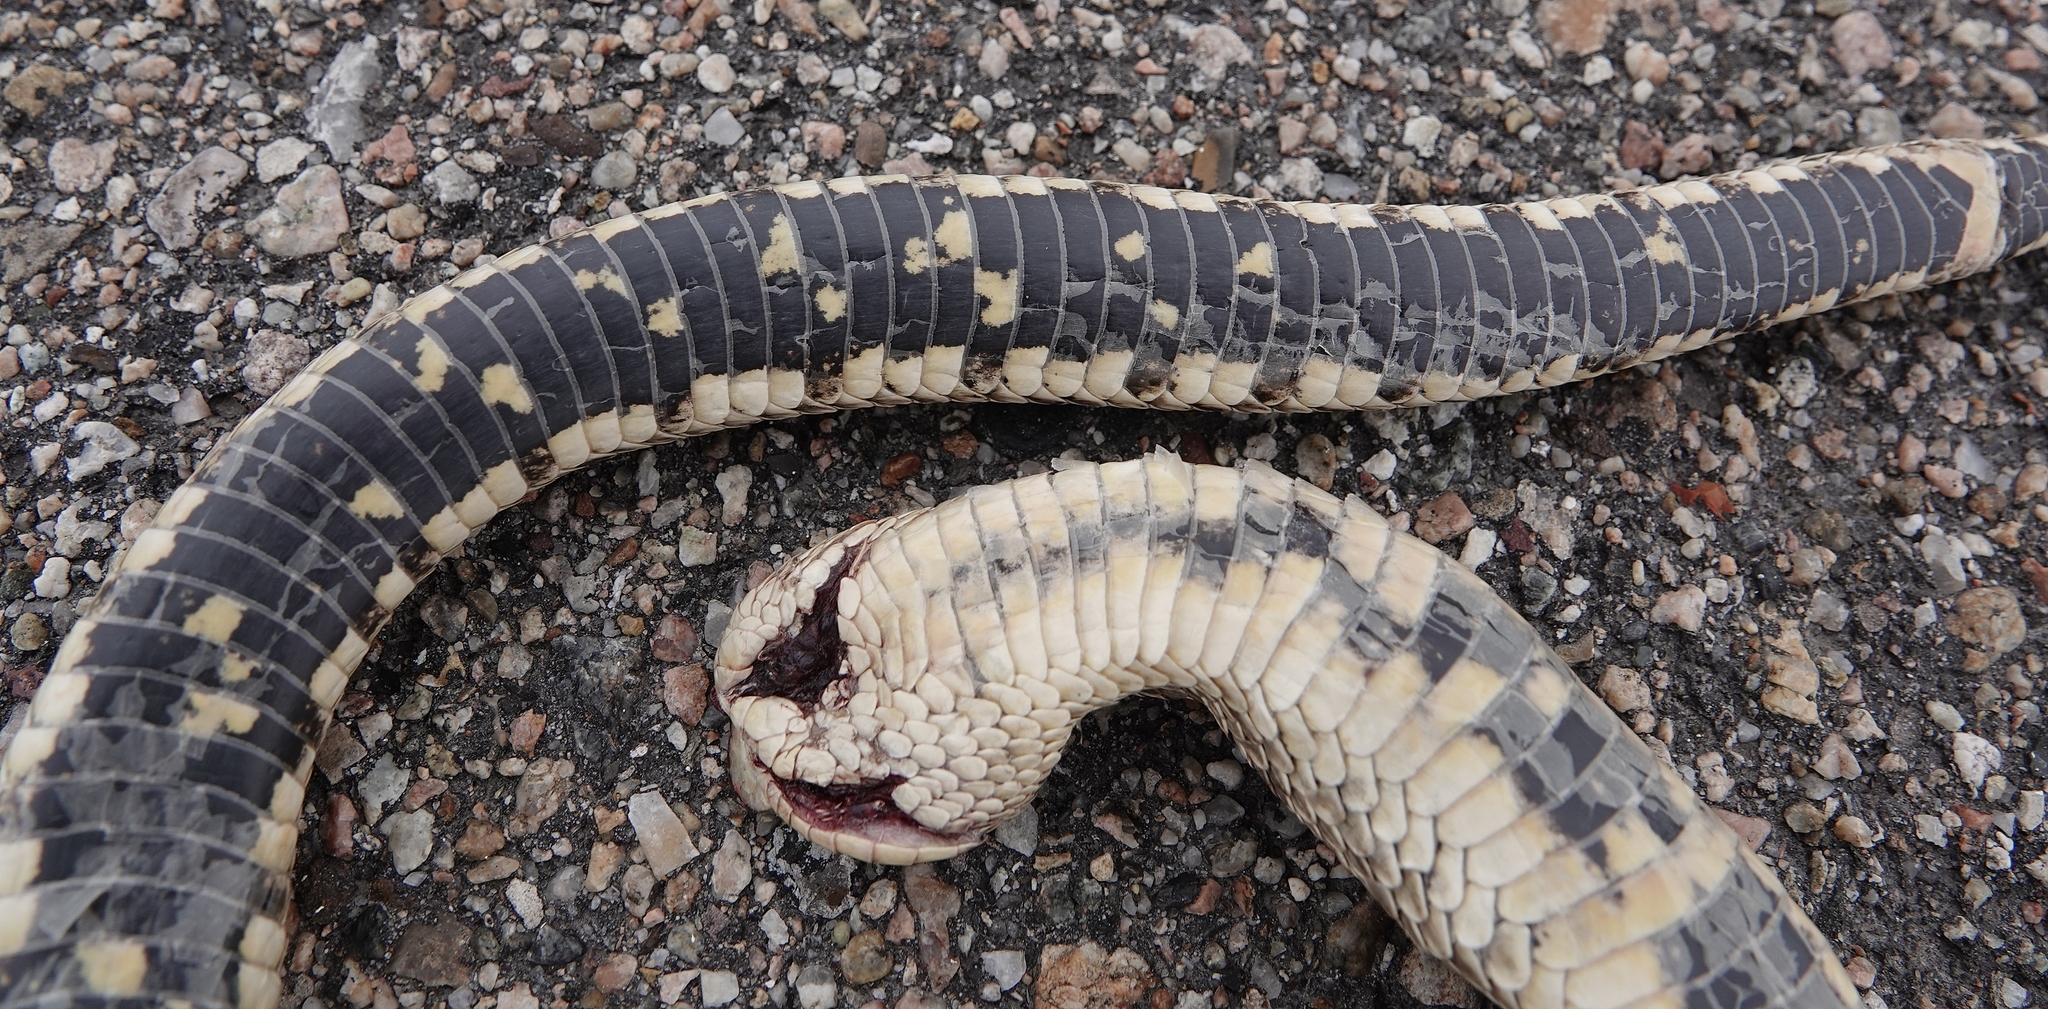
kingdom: Animalia
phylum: Chordata
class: Squamata
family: Colubridae
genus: Heterodon
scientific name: Heterodon nasicus
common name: Western hognose snake
